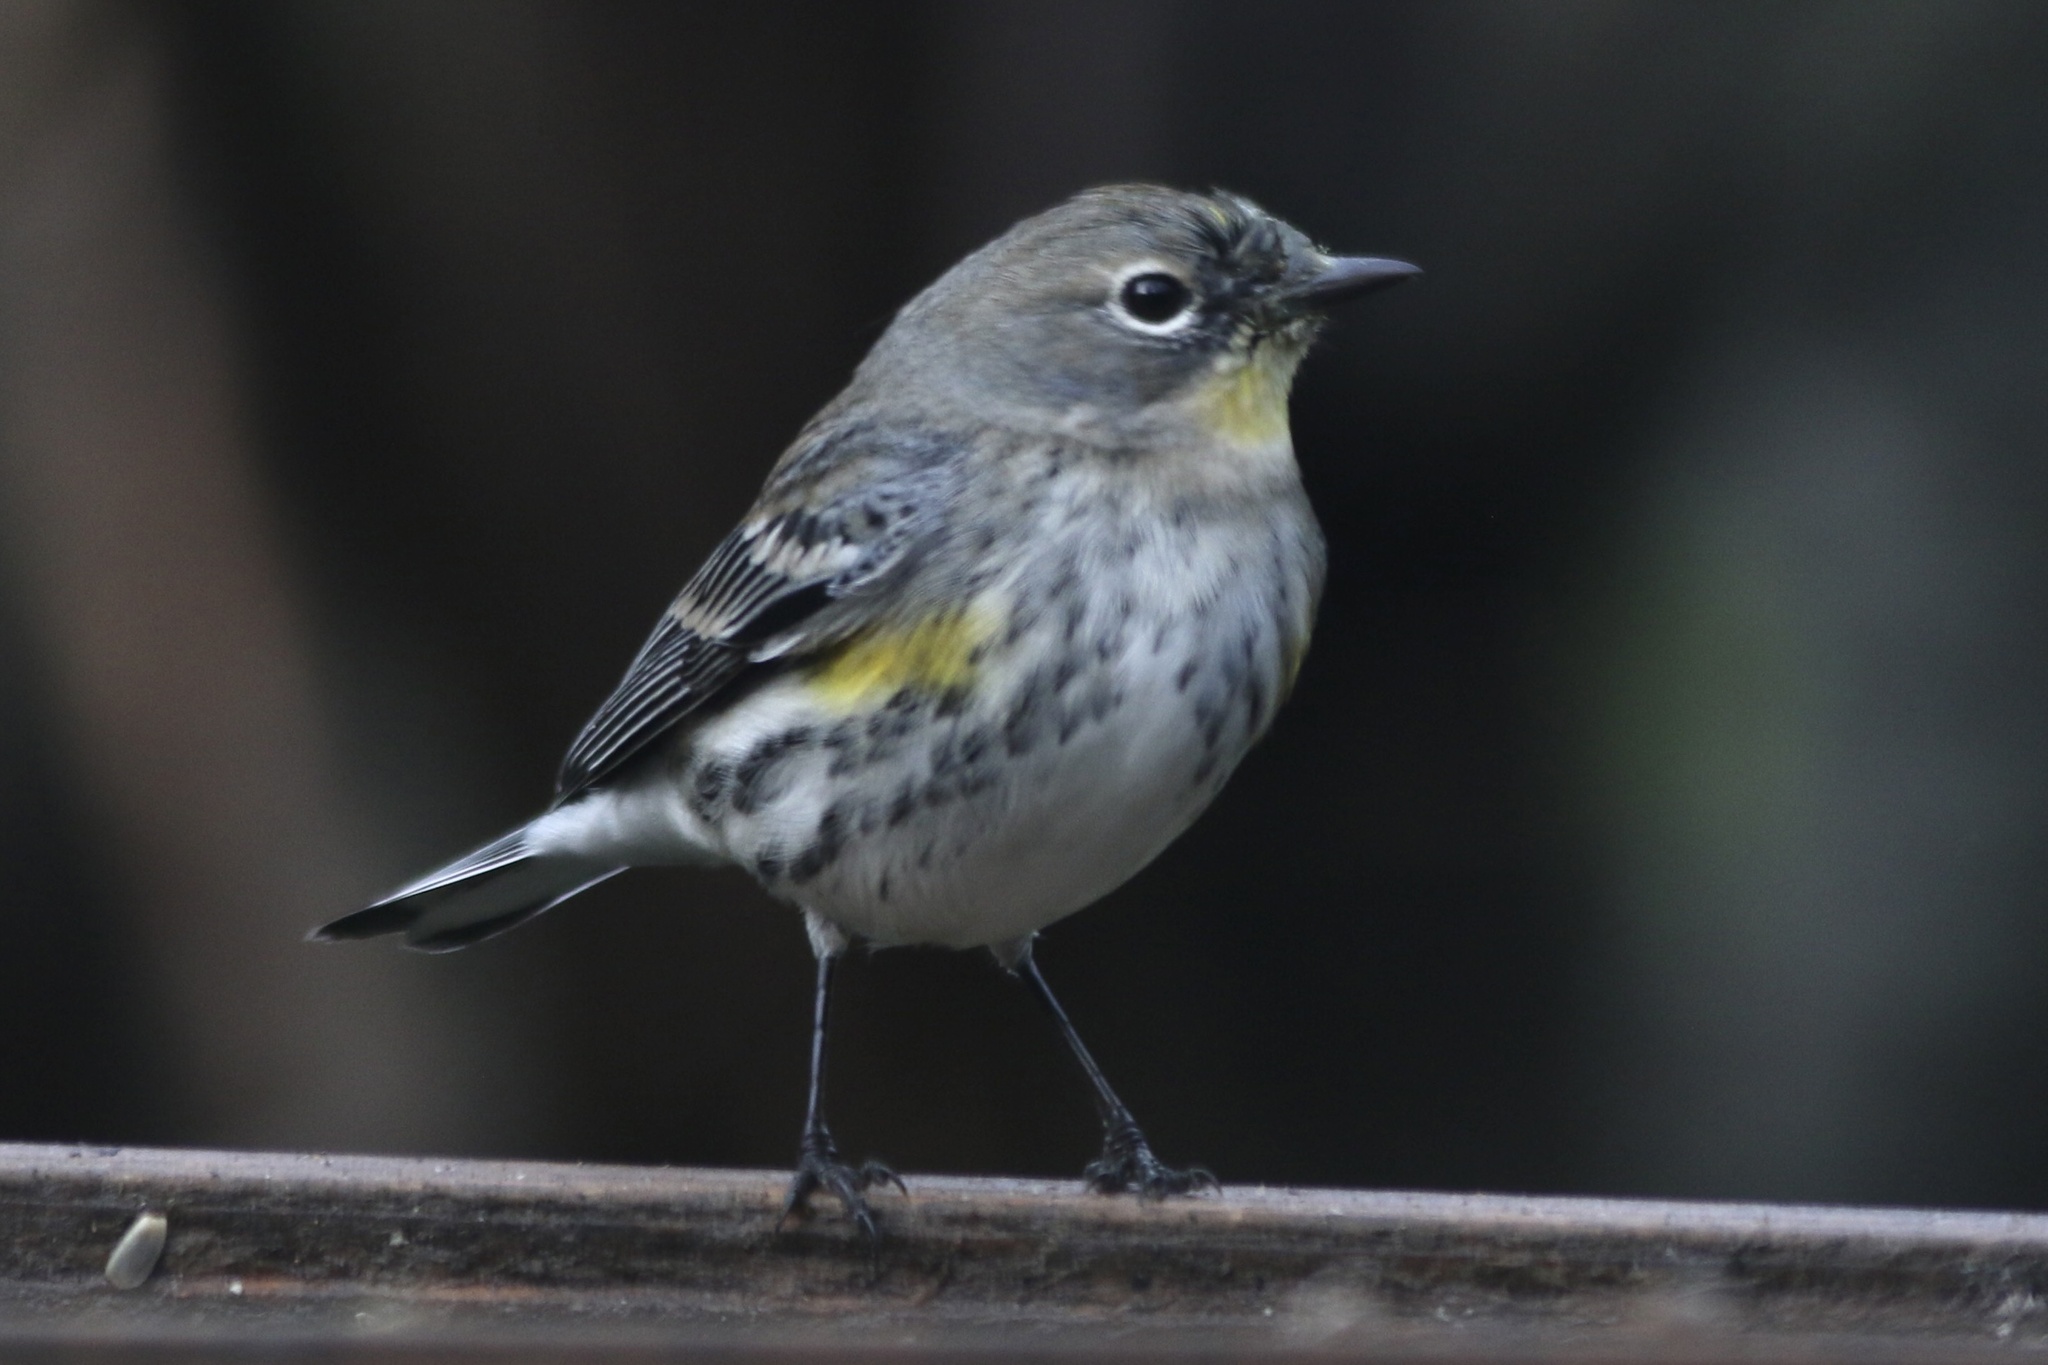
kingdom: Animalia
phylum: Chordata
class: Aves
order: Passeriformes
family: Parulidae
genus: Setophaga
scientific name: Setophaga coronata
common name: Myrtle warbler
